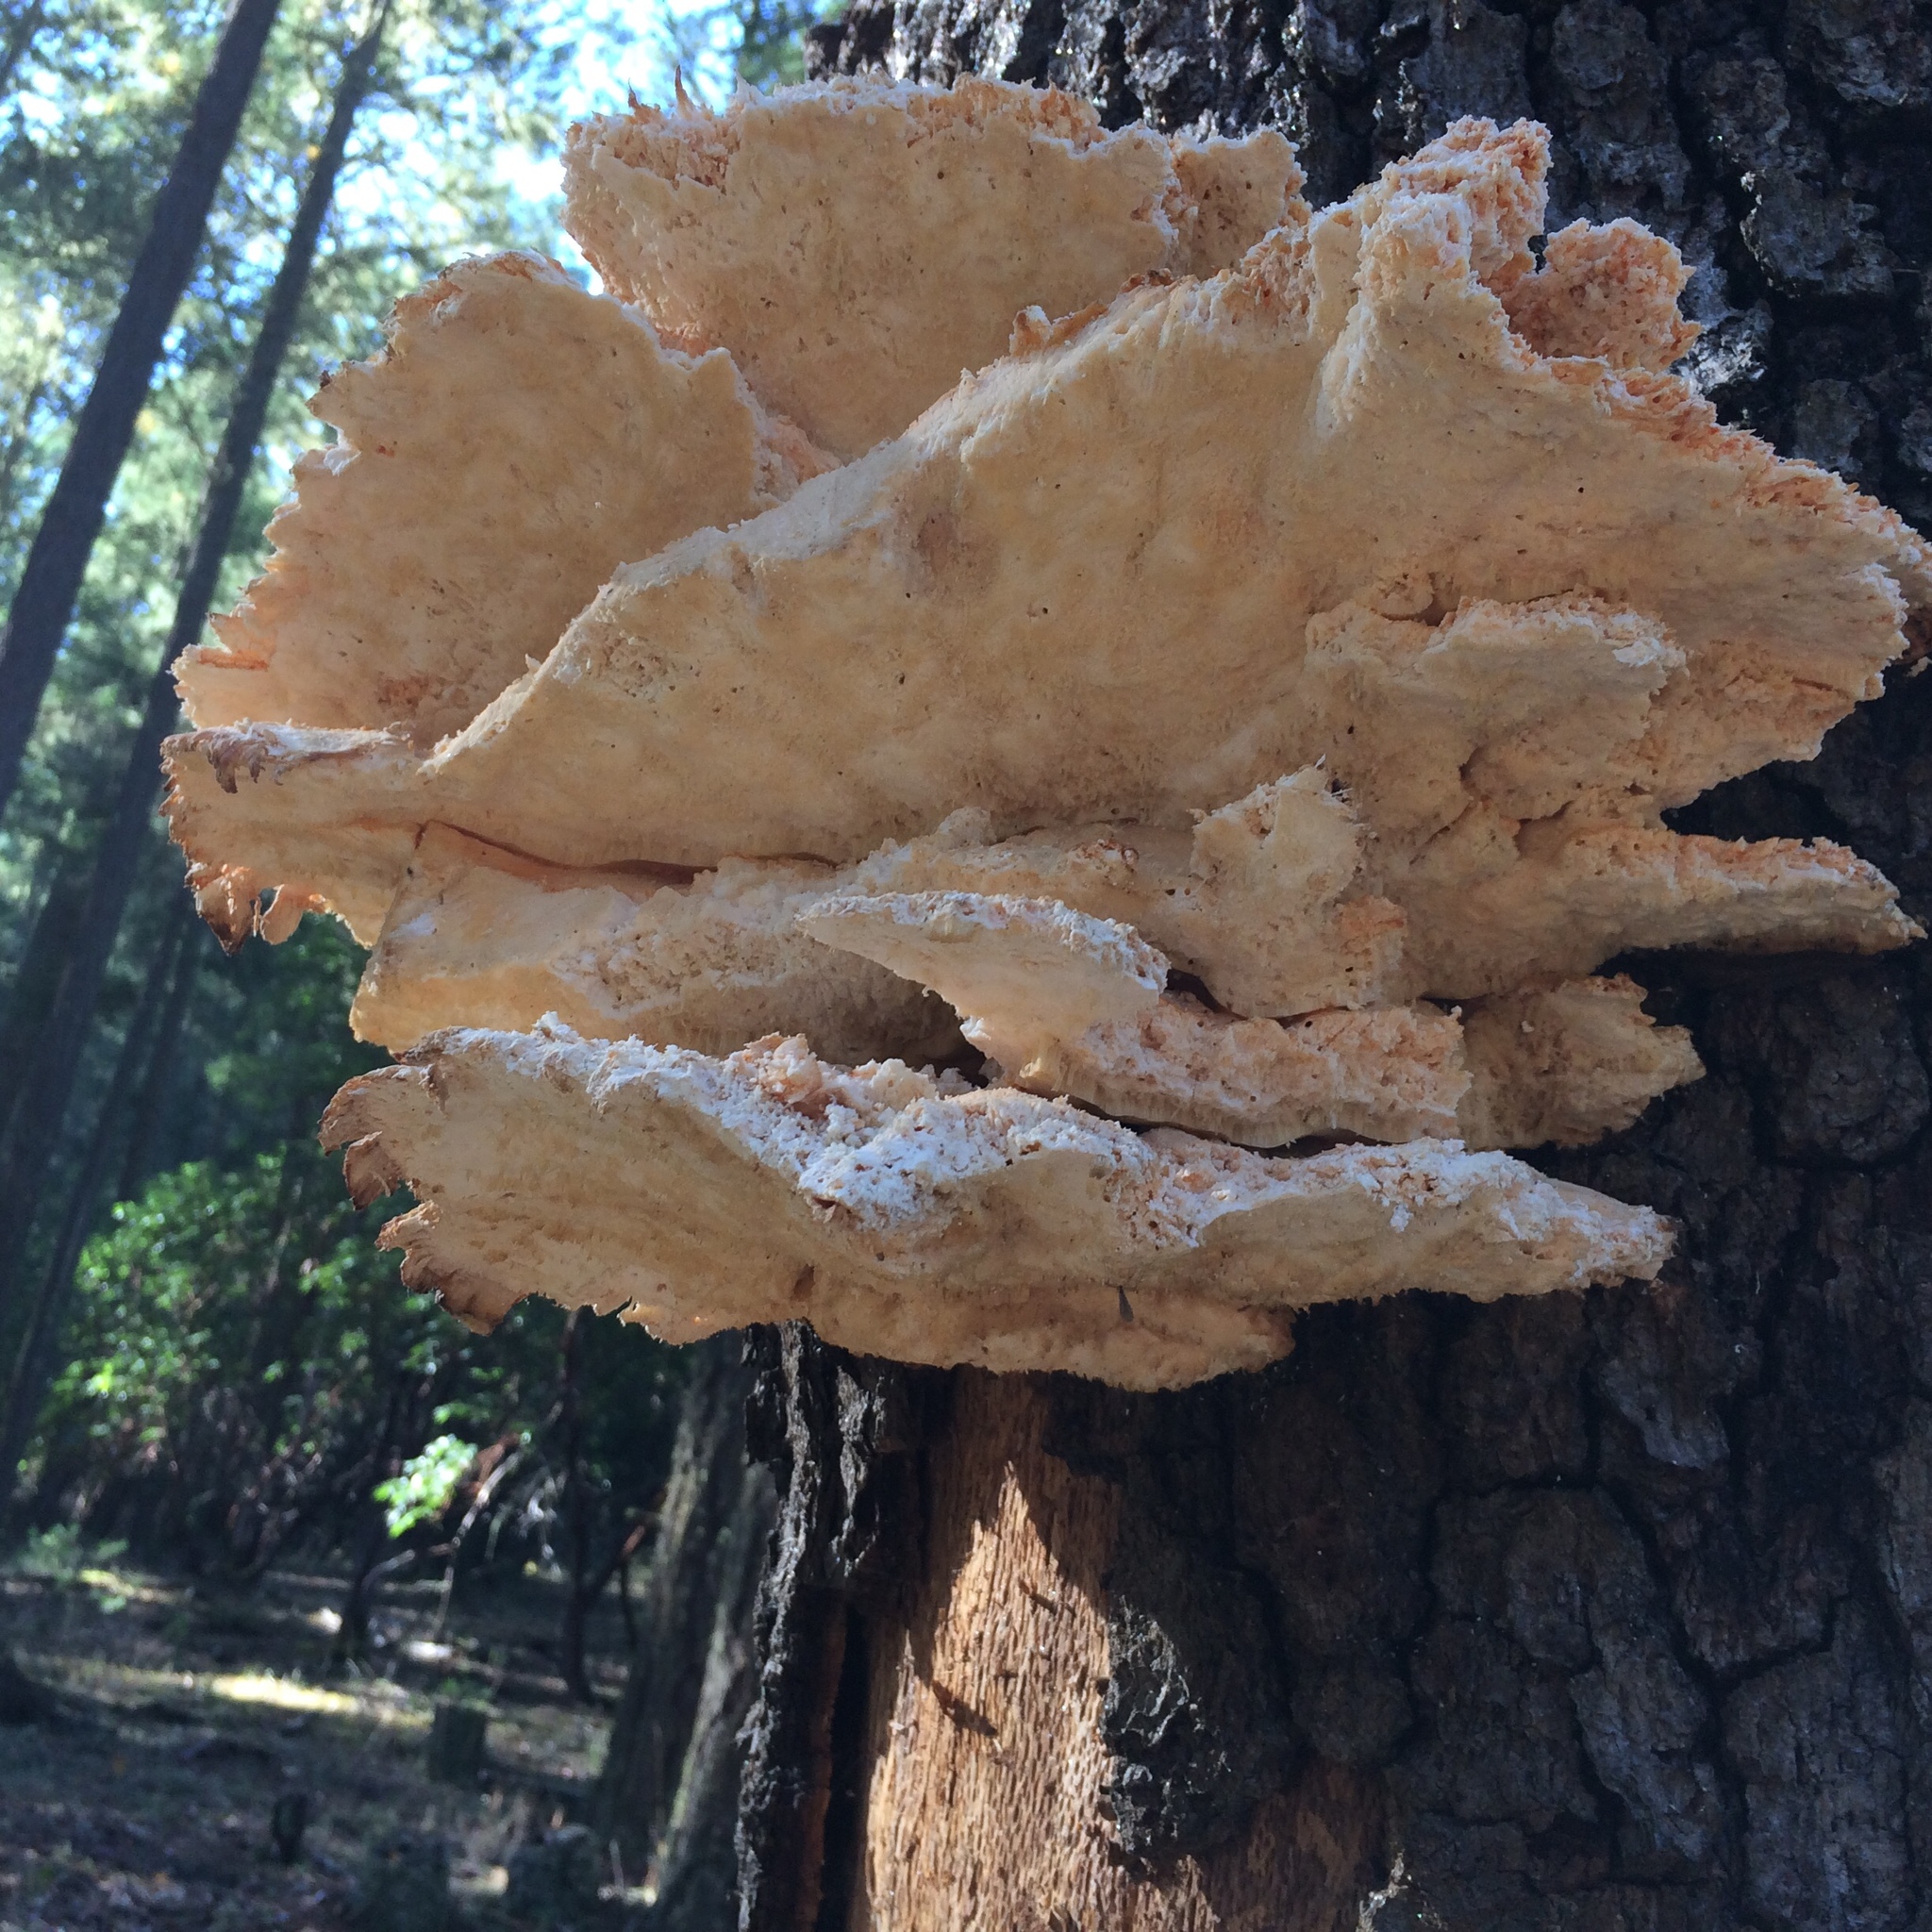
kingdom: Fungi
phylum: Basidiomycota
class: Agaricomycetes
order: Polyporales
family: Laetiporaceae
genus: Laetiporus
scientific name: Laetiporus conifericola
